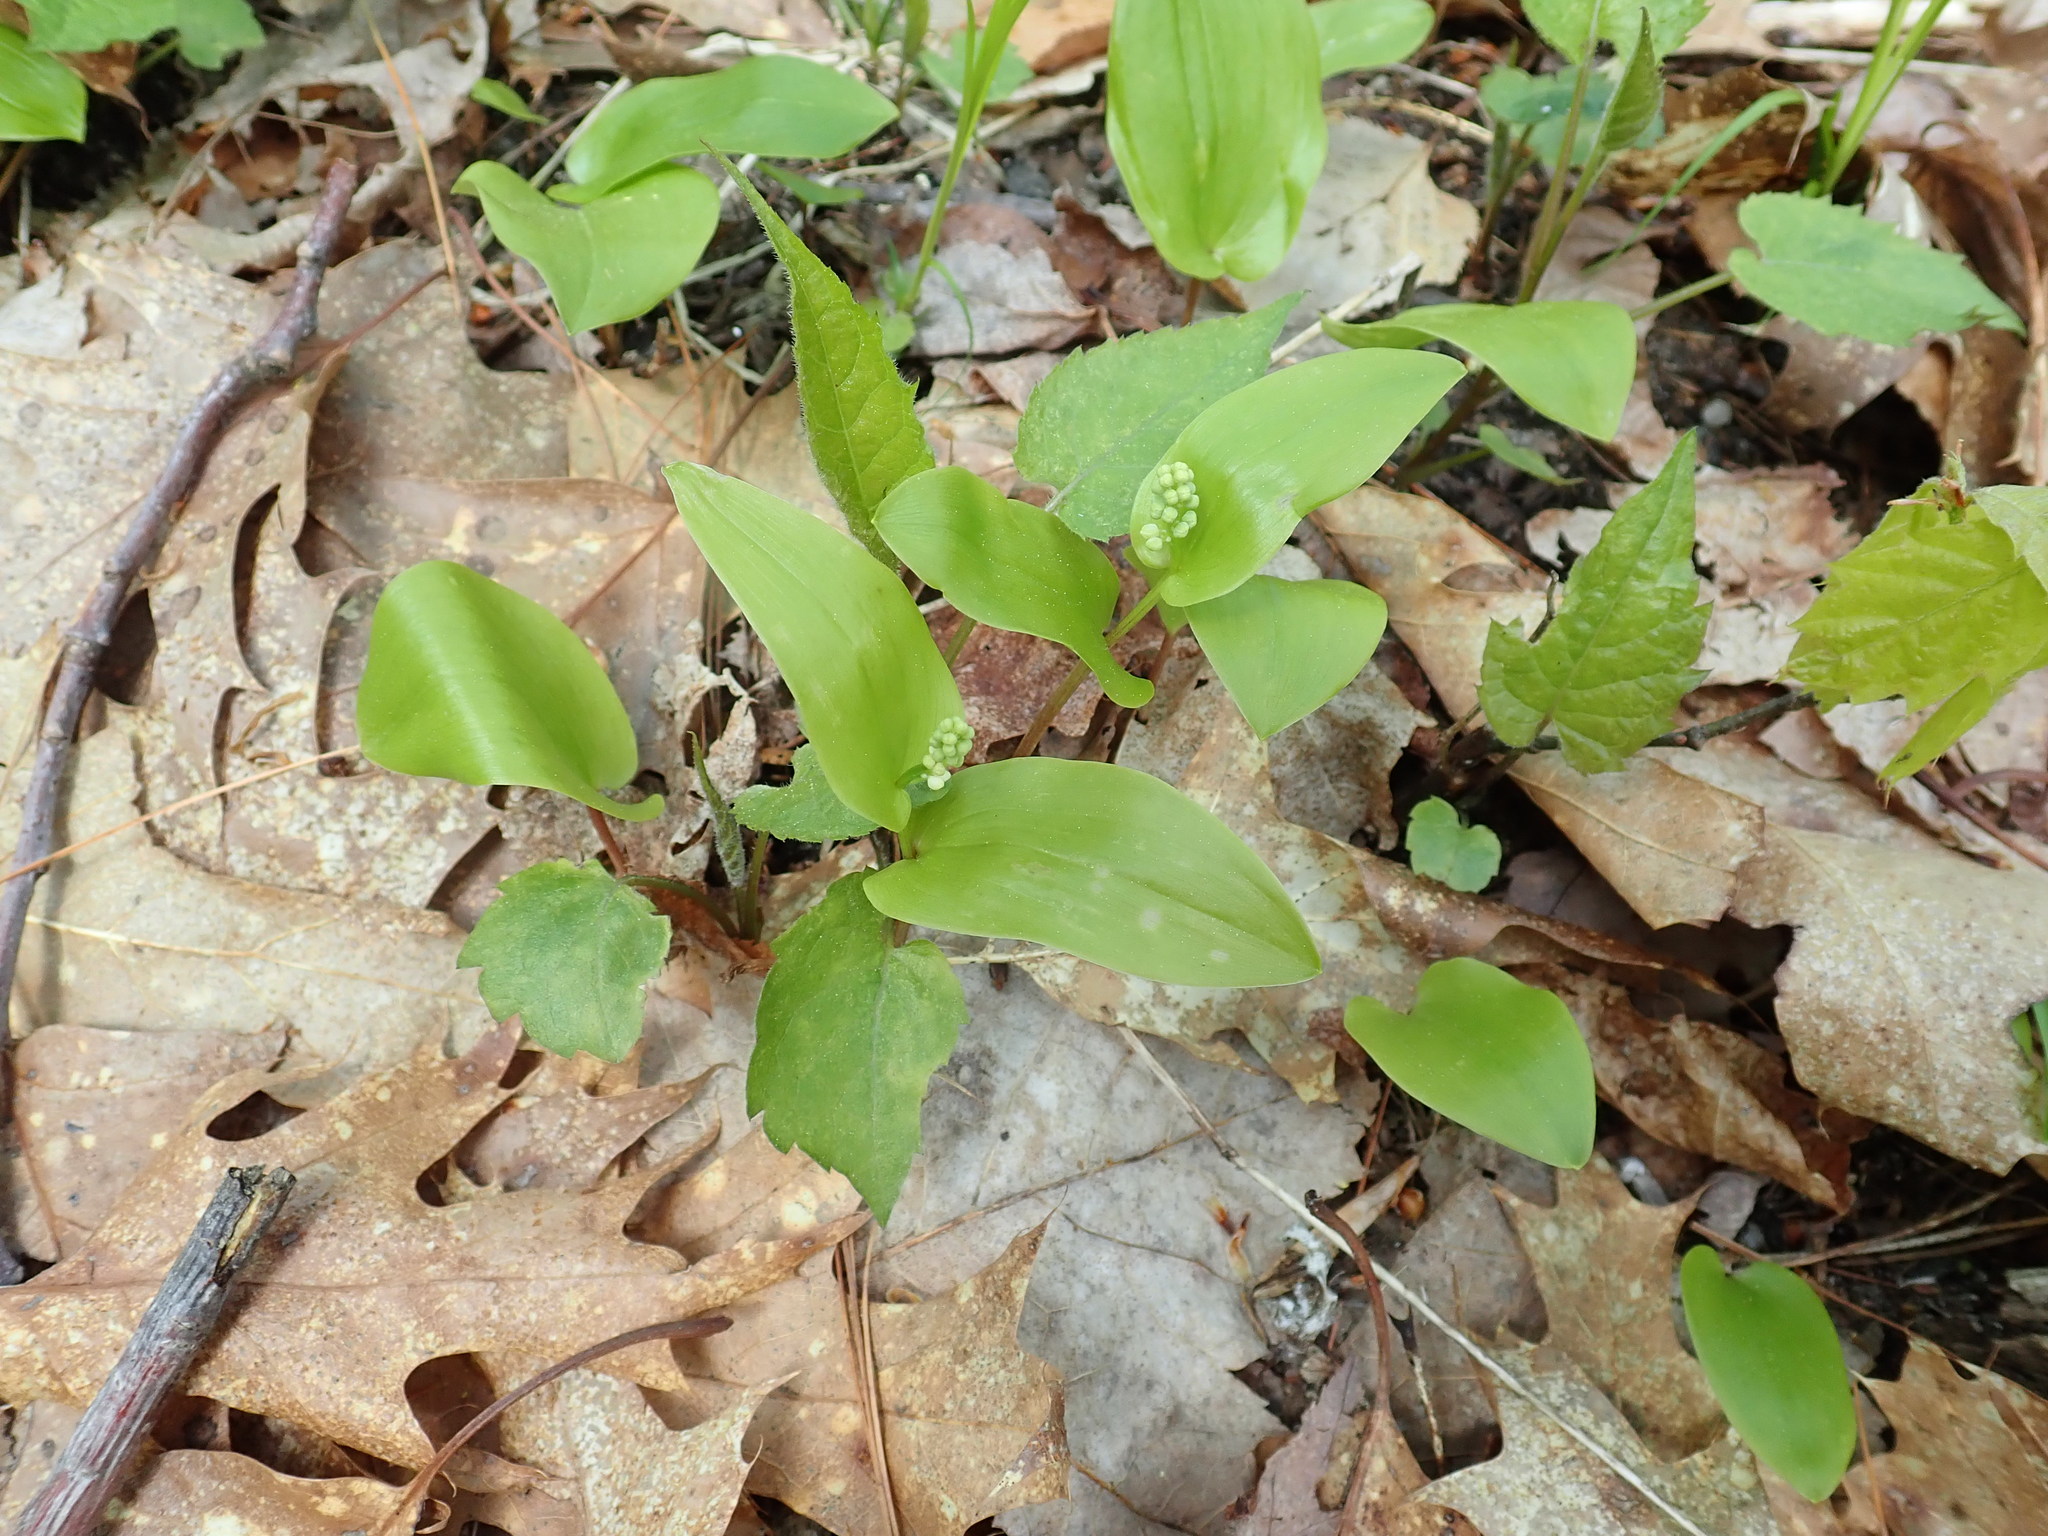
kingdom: Plantae
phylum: Tracheophyta
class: Liliopsida
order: Asparagales
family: Asparagaceae
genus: Maianthemum
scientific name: Maianthemum canadense
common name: False lily-of-the-valley
